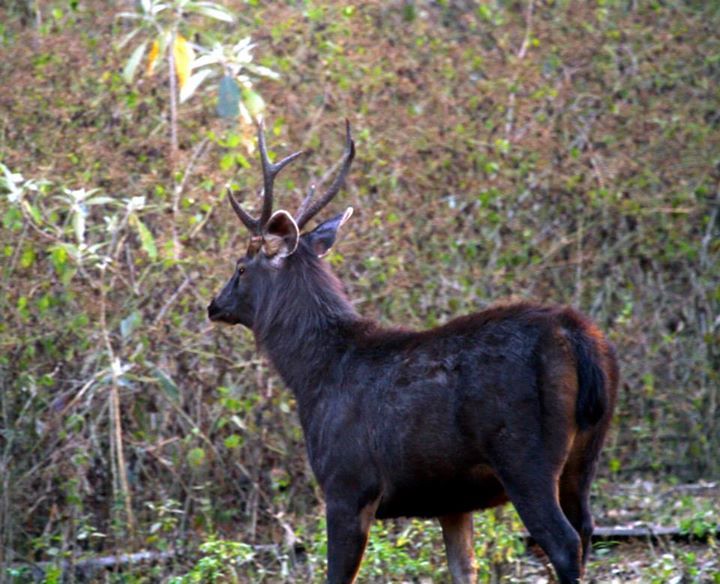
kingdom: Animalia
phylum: Chordata
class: Mammalia
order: Artiodactyla
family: Cervidae
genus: Rusa
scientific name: Rusa unicolor
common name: Sambar
